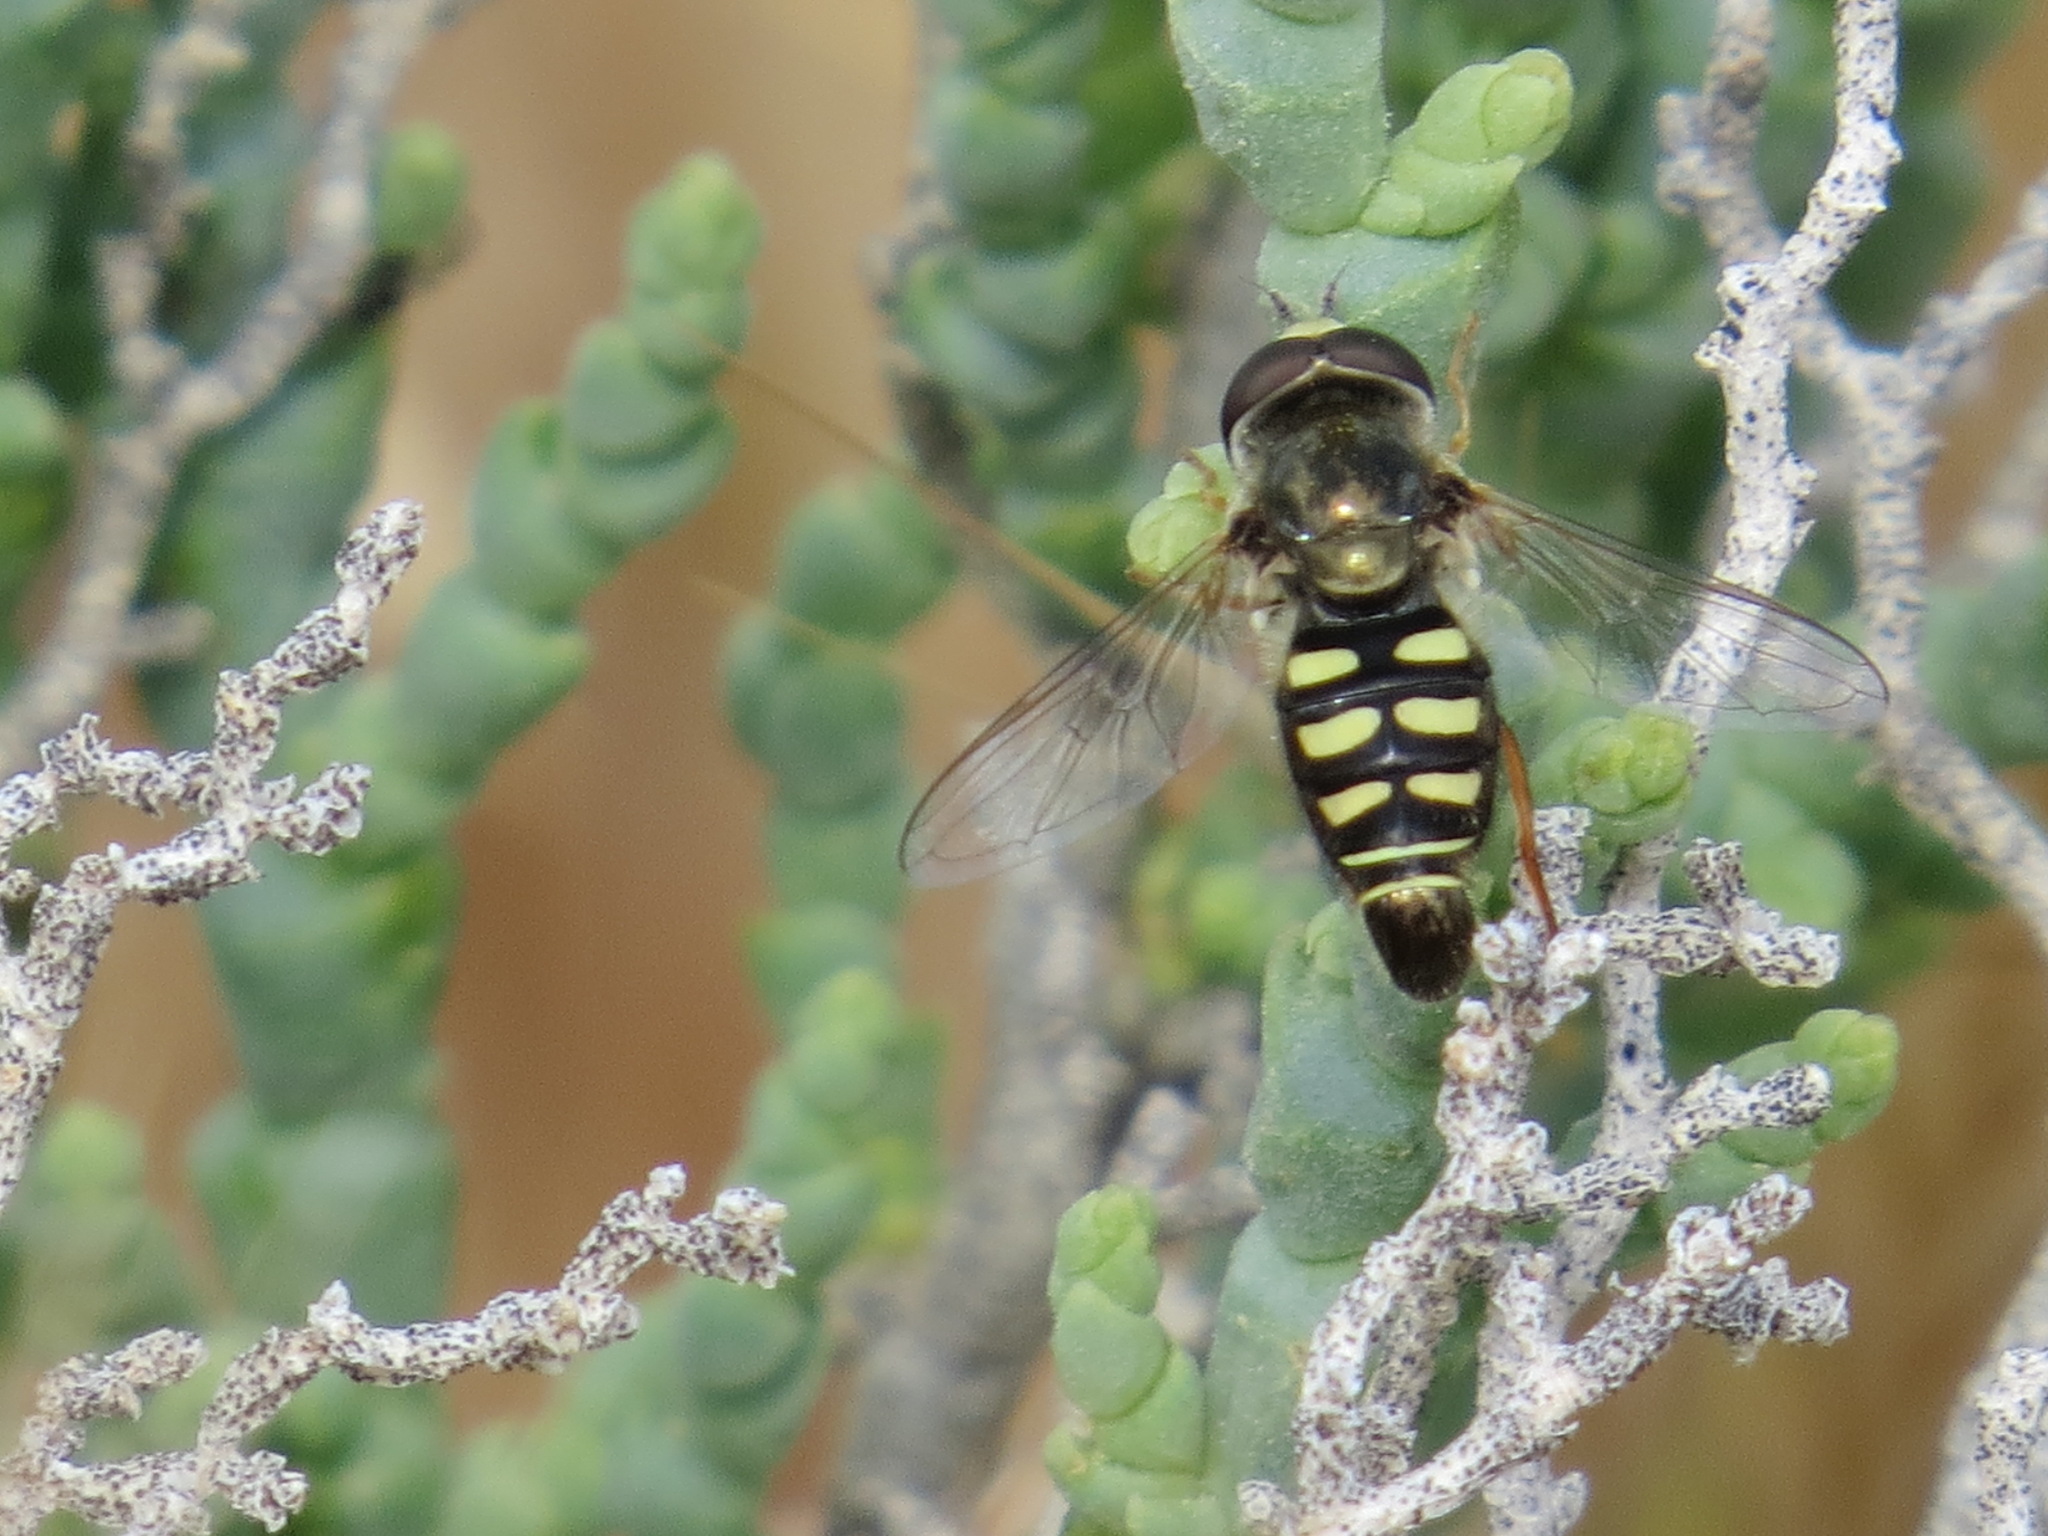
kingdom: Animalia
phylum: Arthropoda
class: Insecta
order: Diptera
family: Syrphidae
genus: Eupeodes
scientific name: Eupeodes volucris
